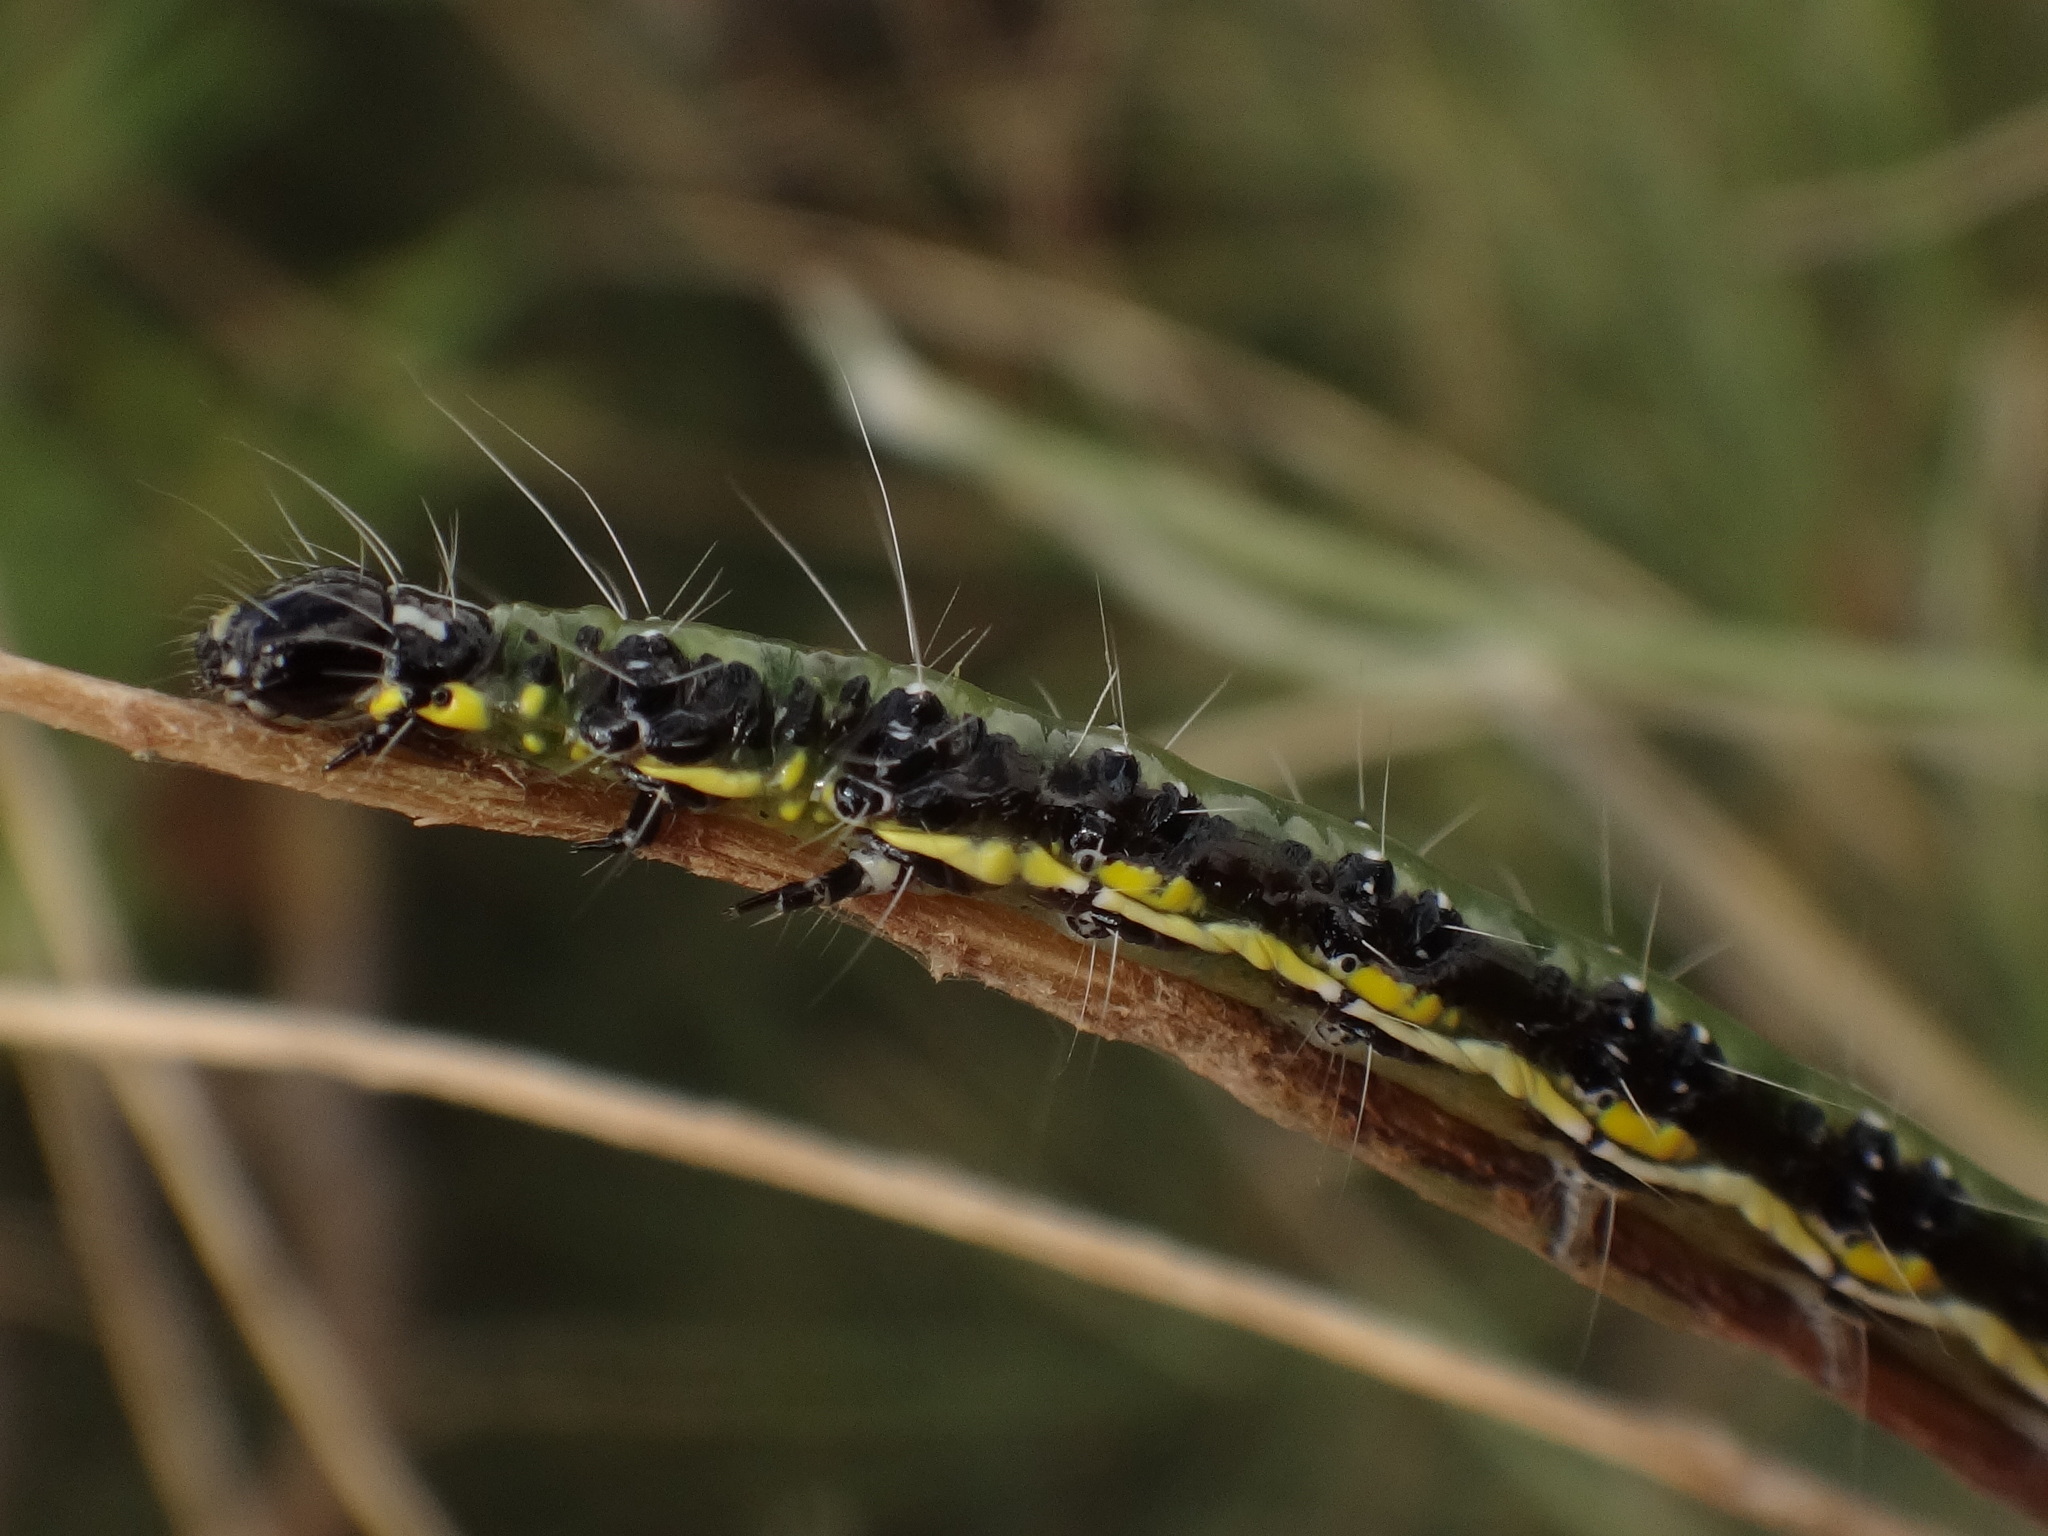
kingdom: Animalia
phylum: Arthropoda
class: Insecta
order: Lepidoptera
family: Crambidae
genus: Uresiphita
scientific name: Uresiphita gilvata
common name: Yellow-underwing pearl
